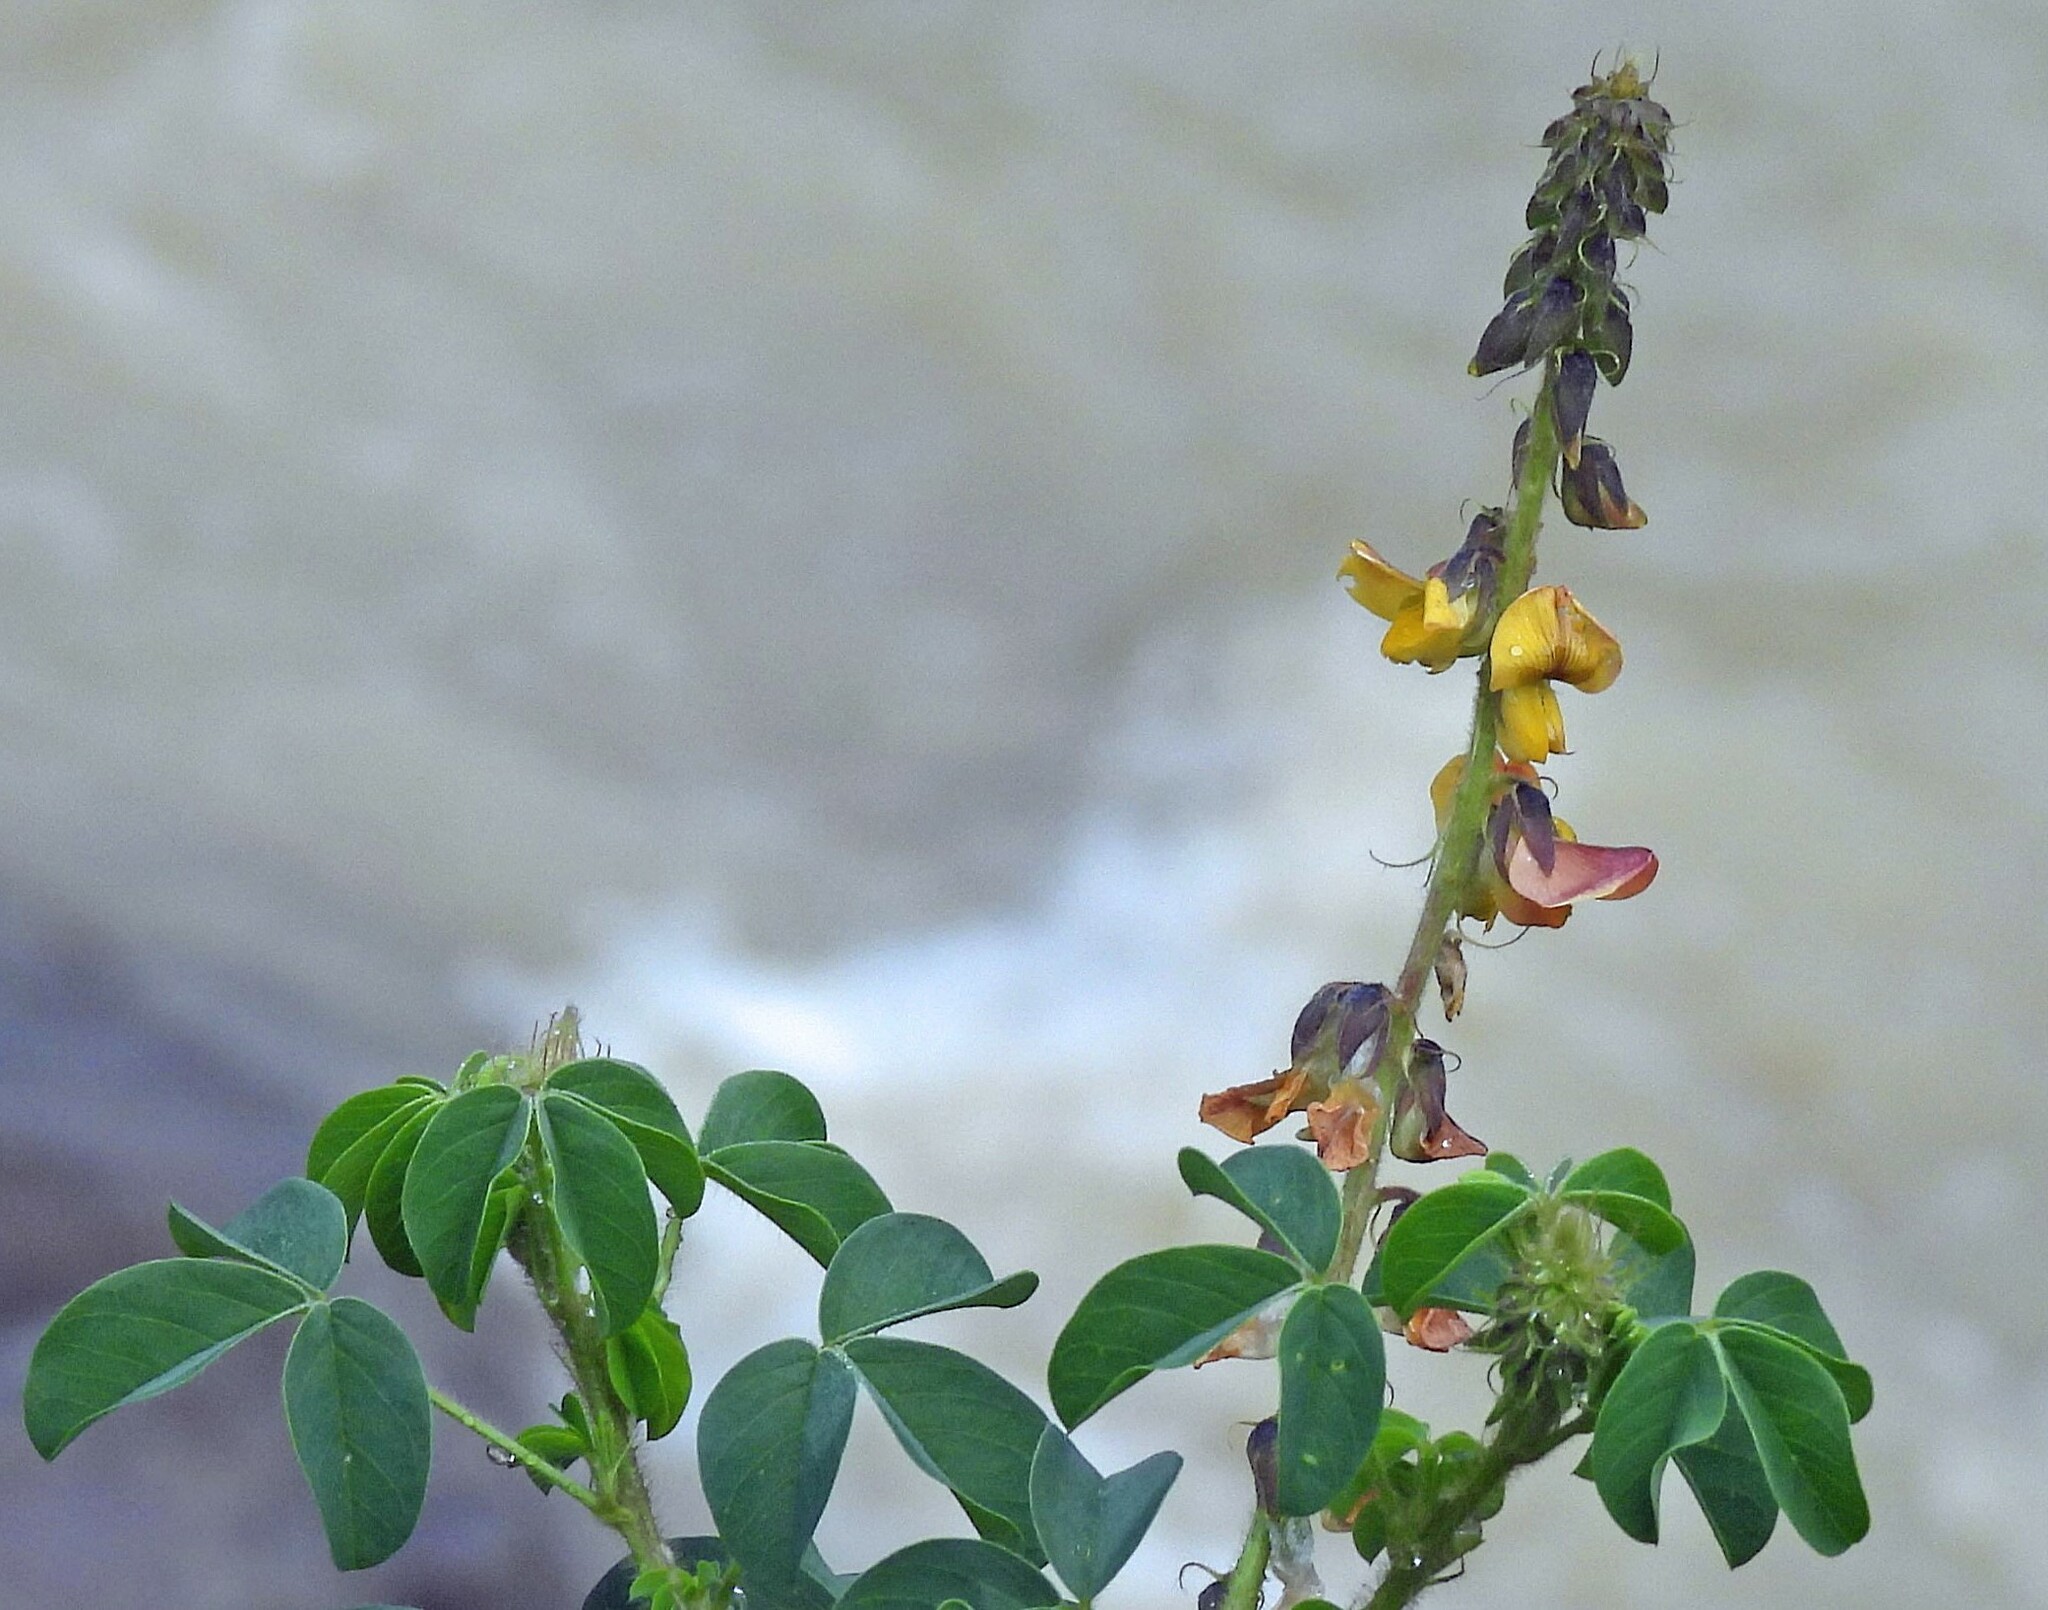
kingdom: Plantae
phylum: Tracheophyta
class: Magnoliopsida
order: Fabales
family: Fabaceae
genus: Crotalaria
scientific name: Crotalaria incana
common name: Shakeshake
